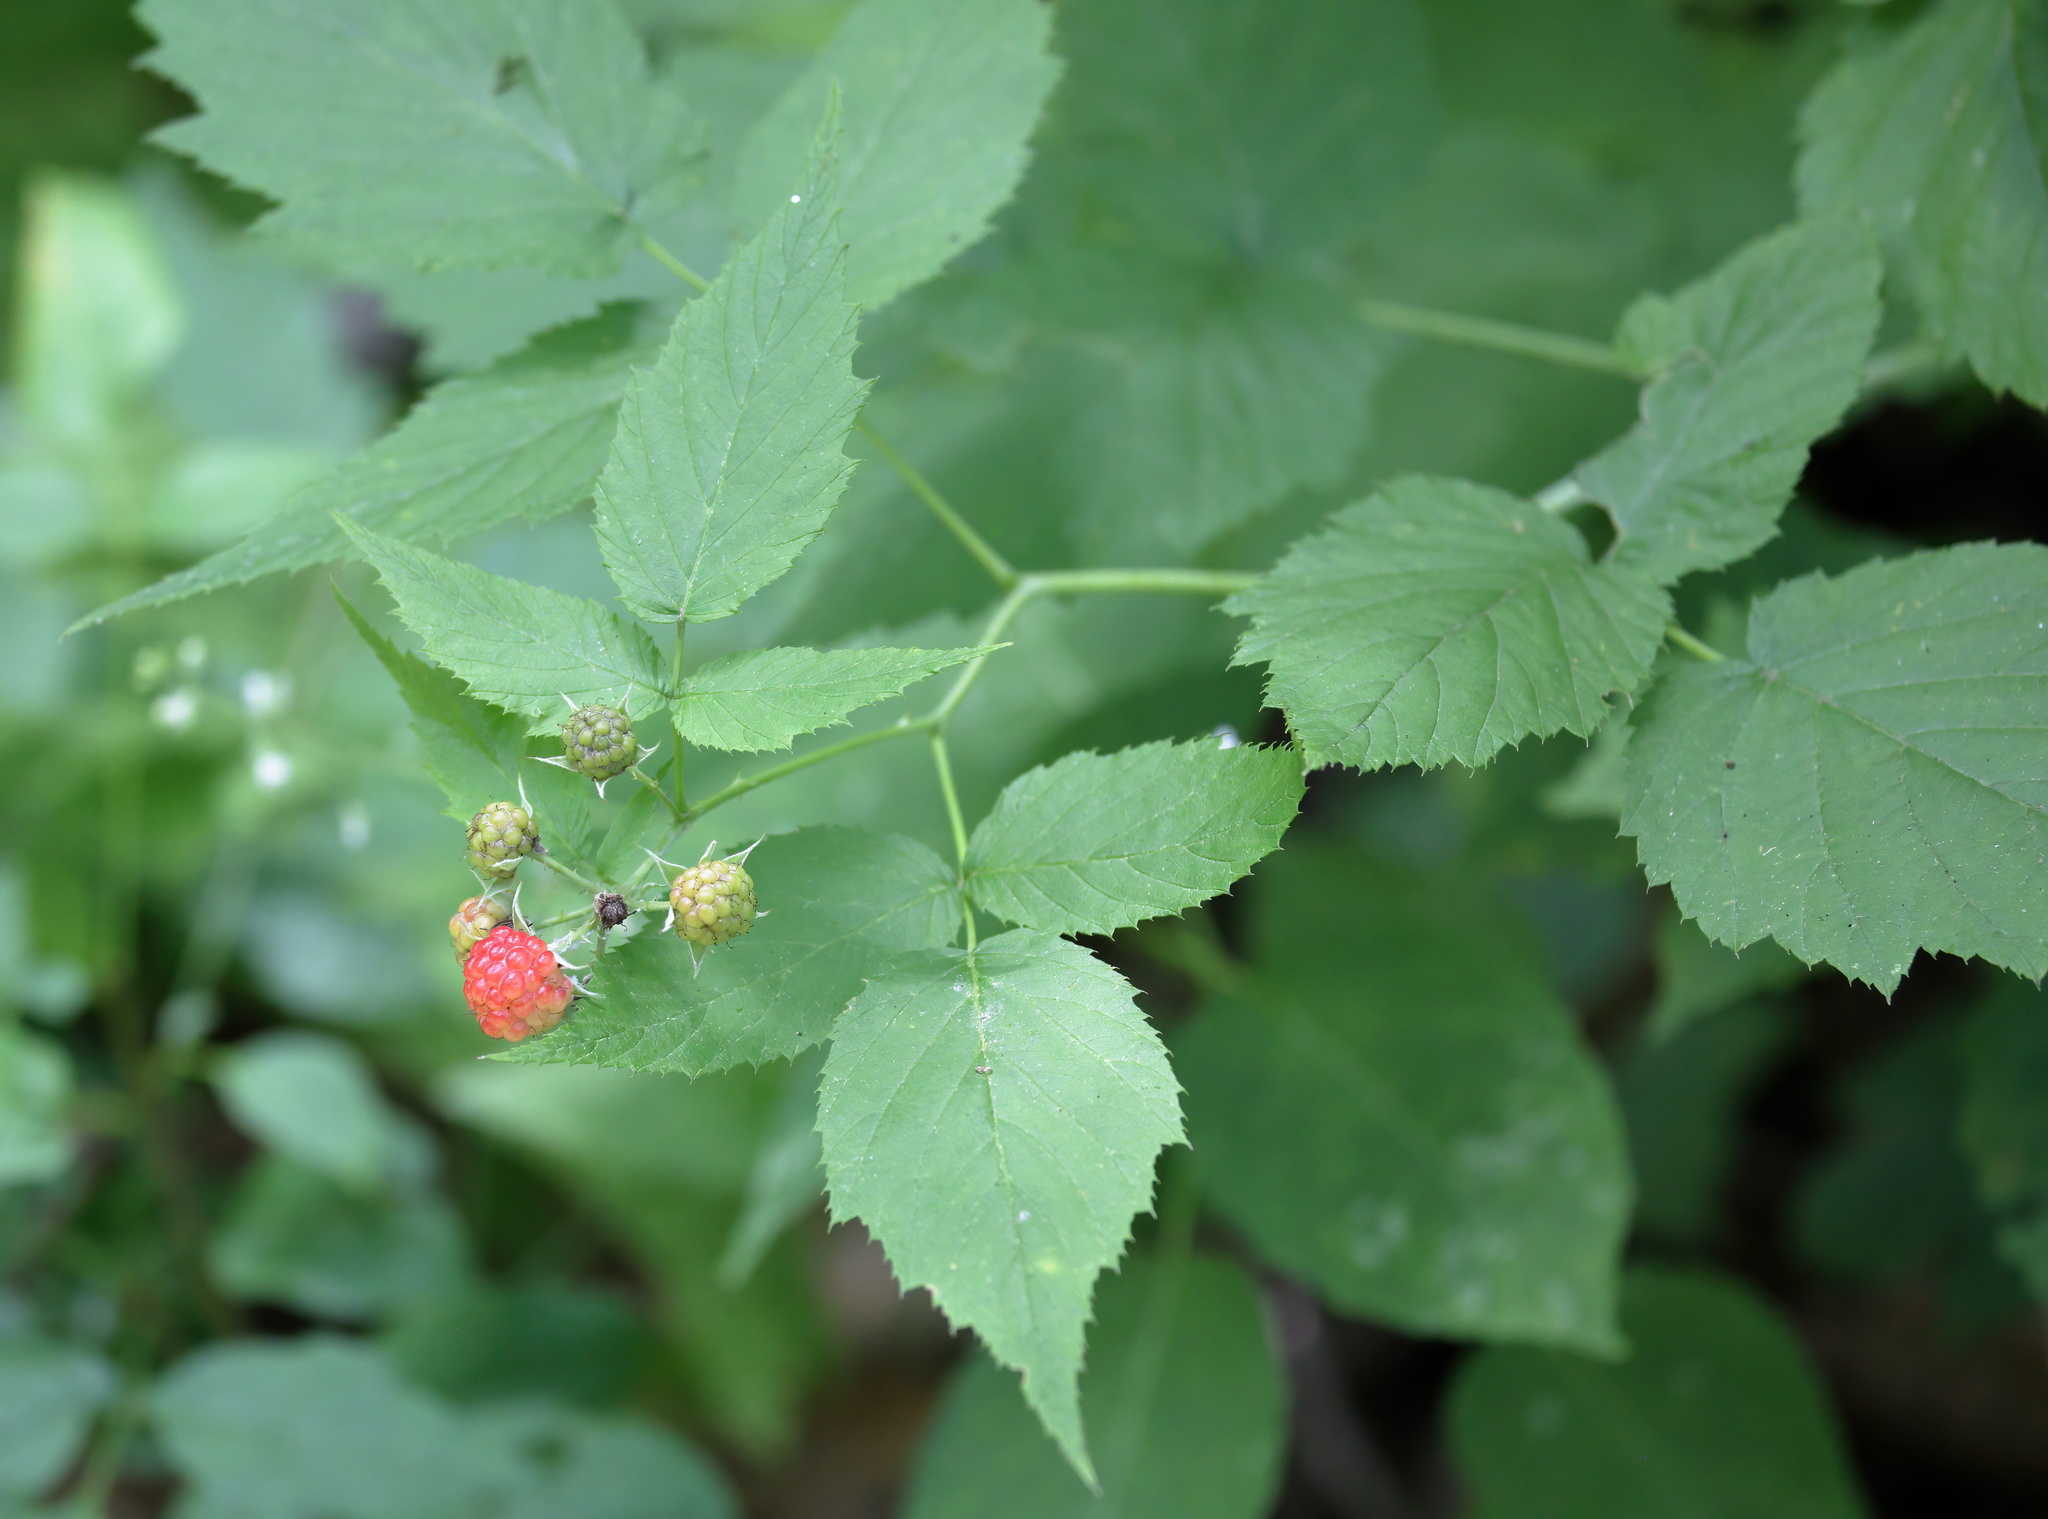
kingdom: Plantae
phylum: Tracheophyta
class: Magnoliopsida
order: Rosales
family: Rosaceae
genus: Rubus
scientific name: Rubus occidentalis
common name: Black raspberry
